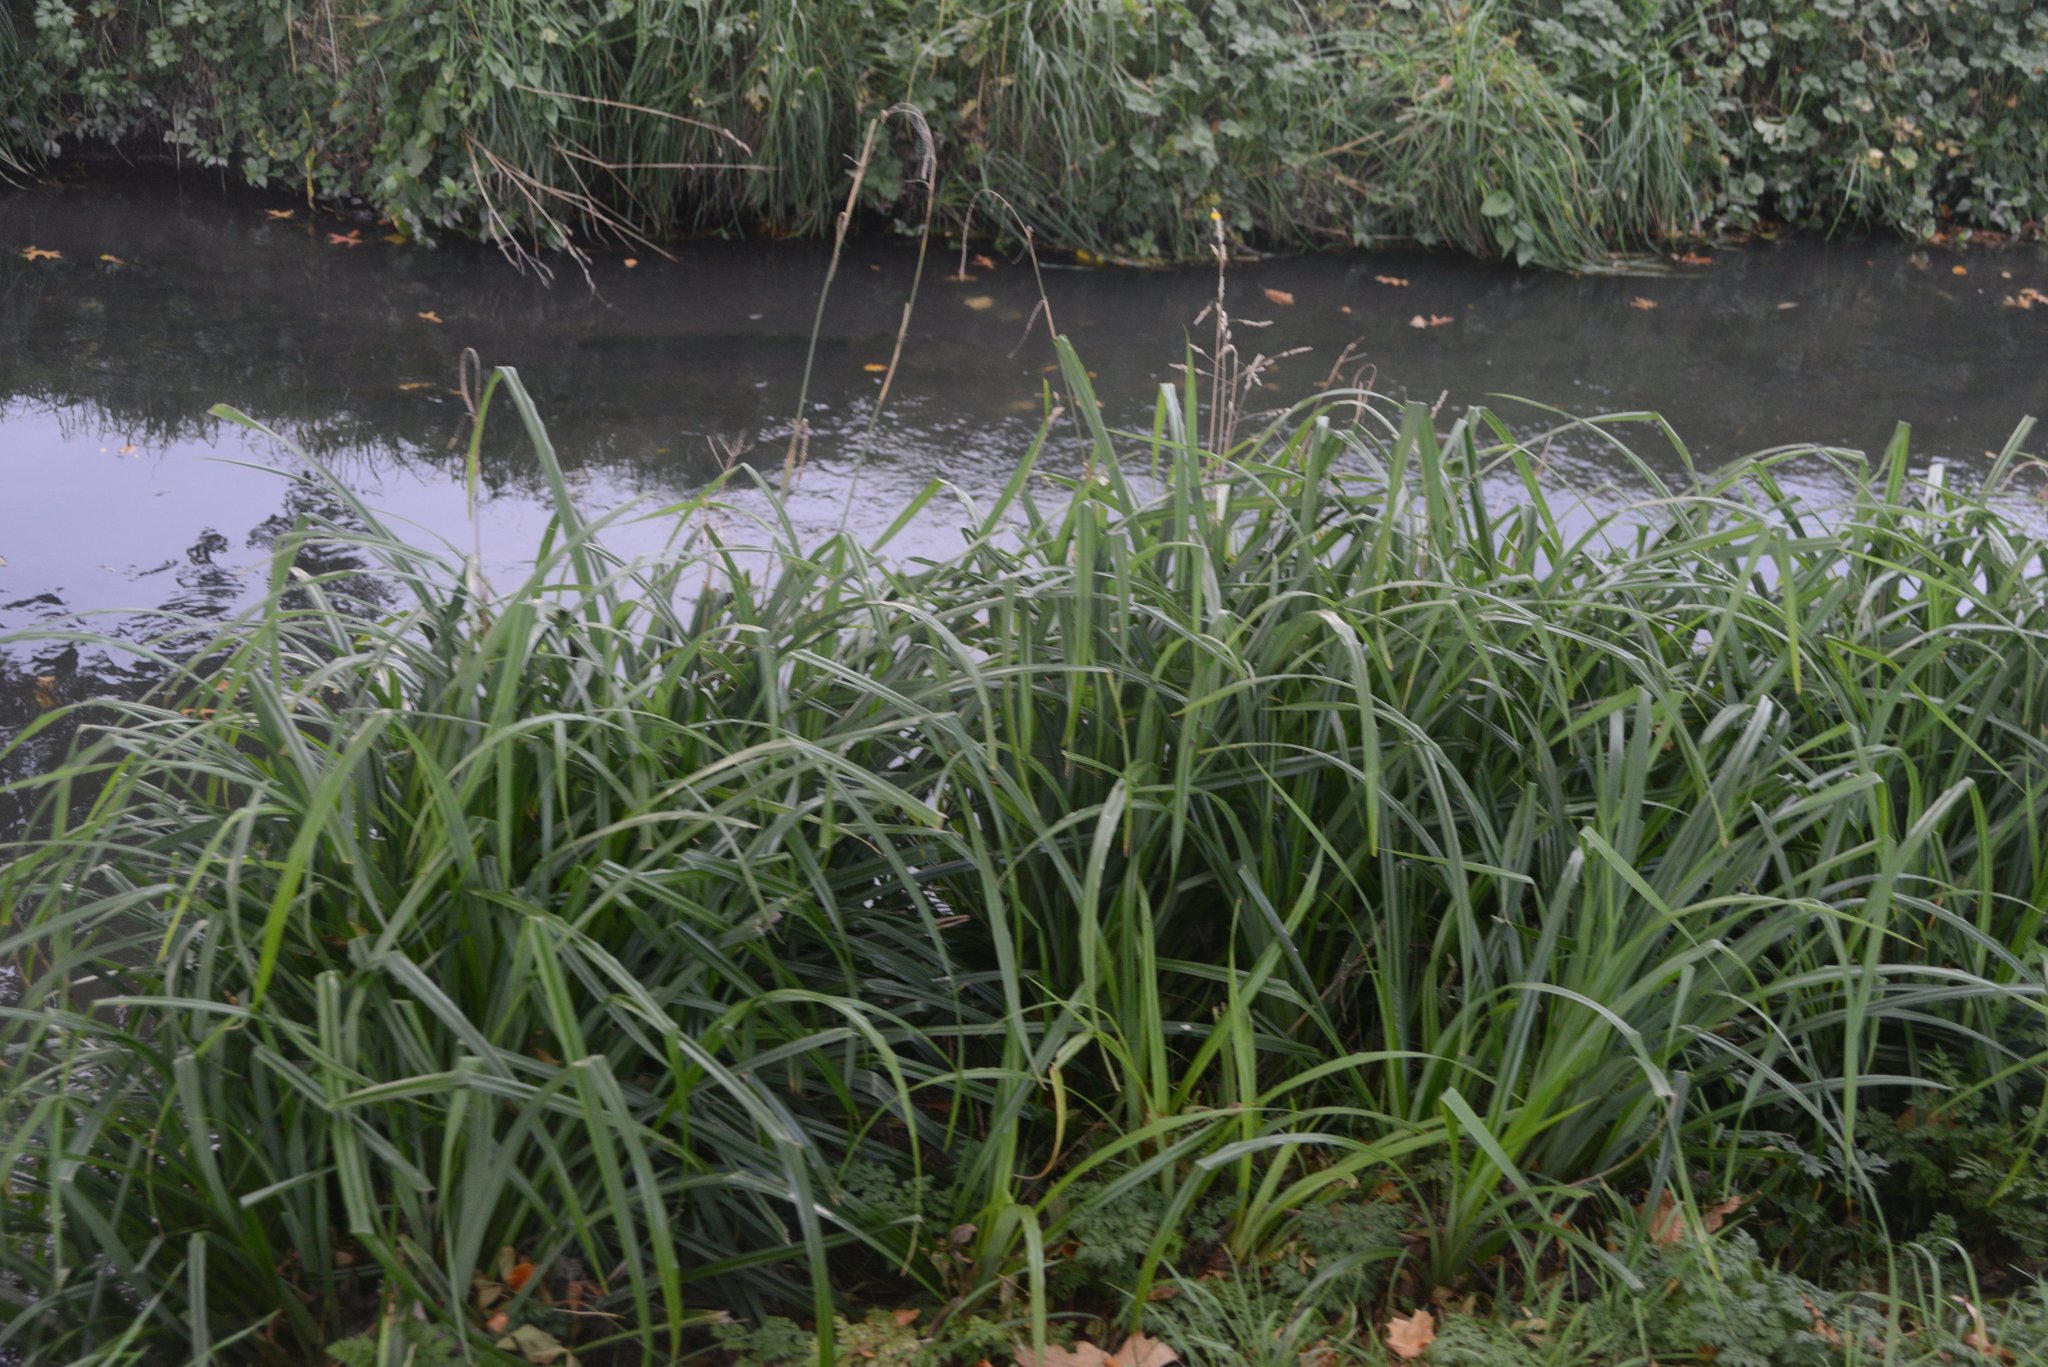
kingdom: Plantae
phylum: Tracheophyta
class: Liliopsida
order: Poales
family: Cyperaceae
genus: Carex
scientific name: Carex pendula
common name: Pendulous sedge
